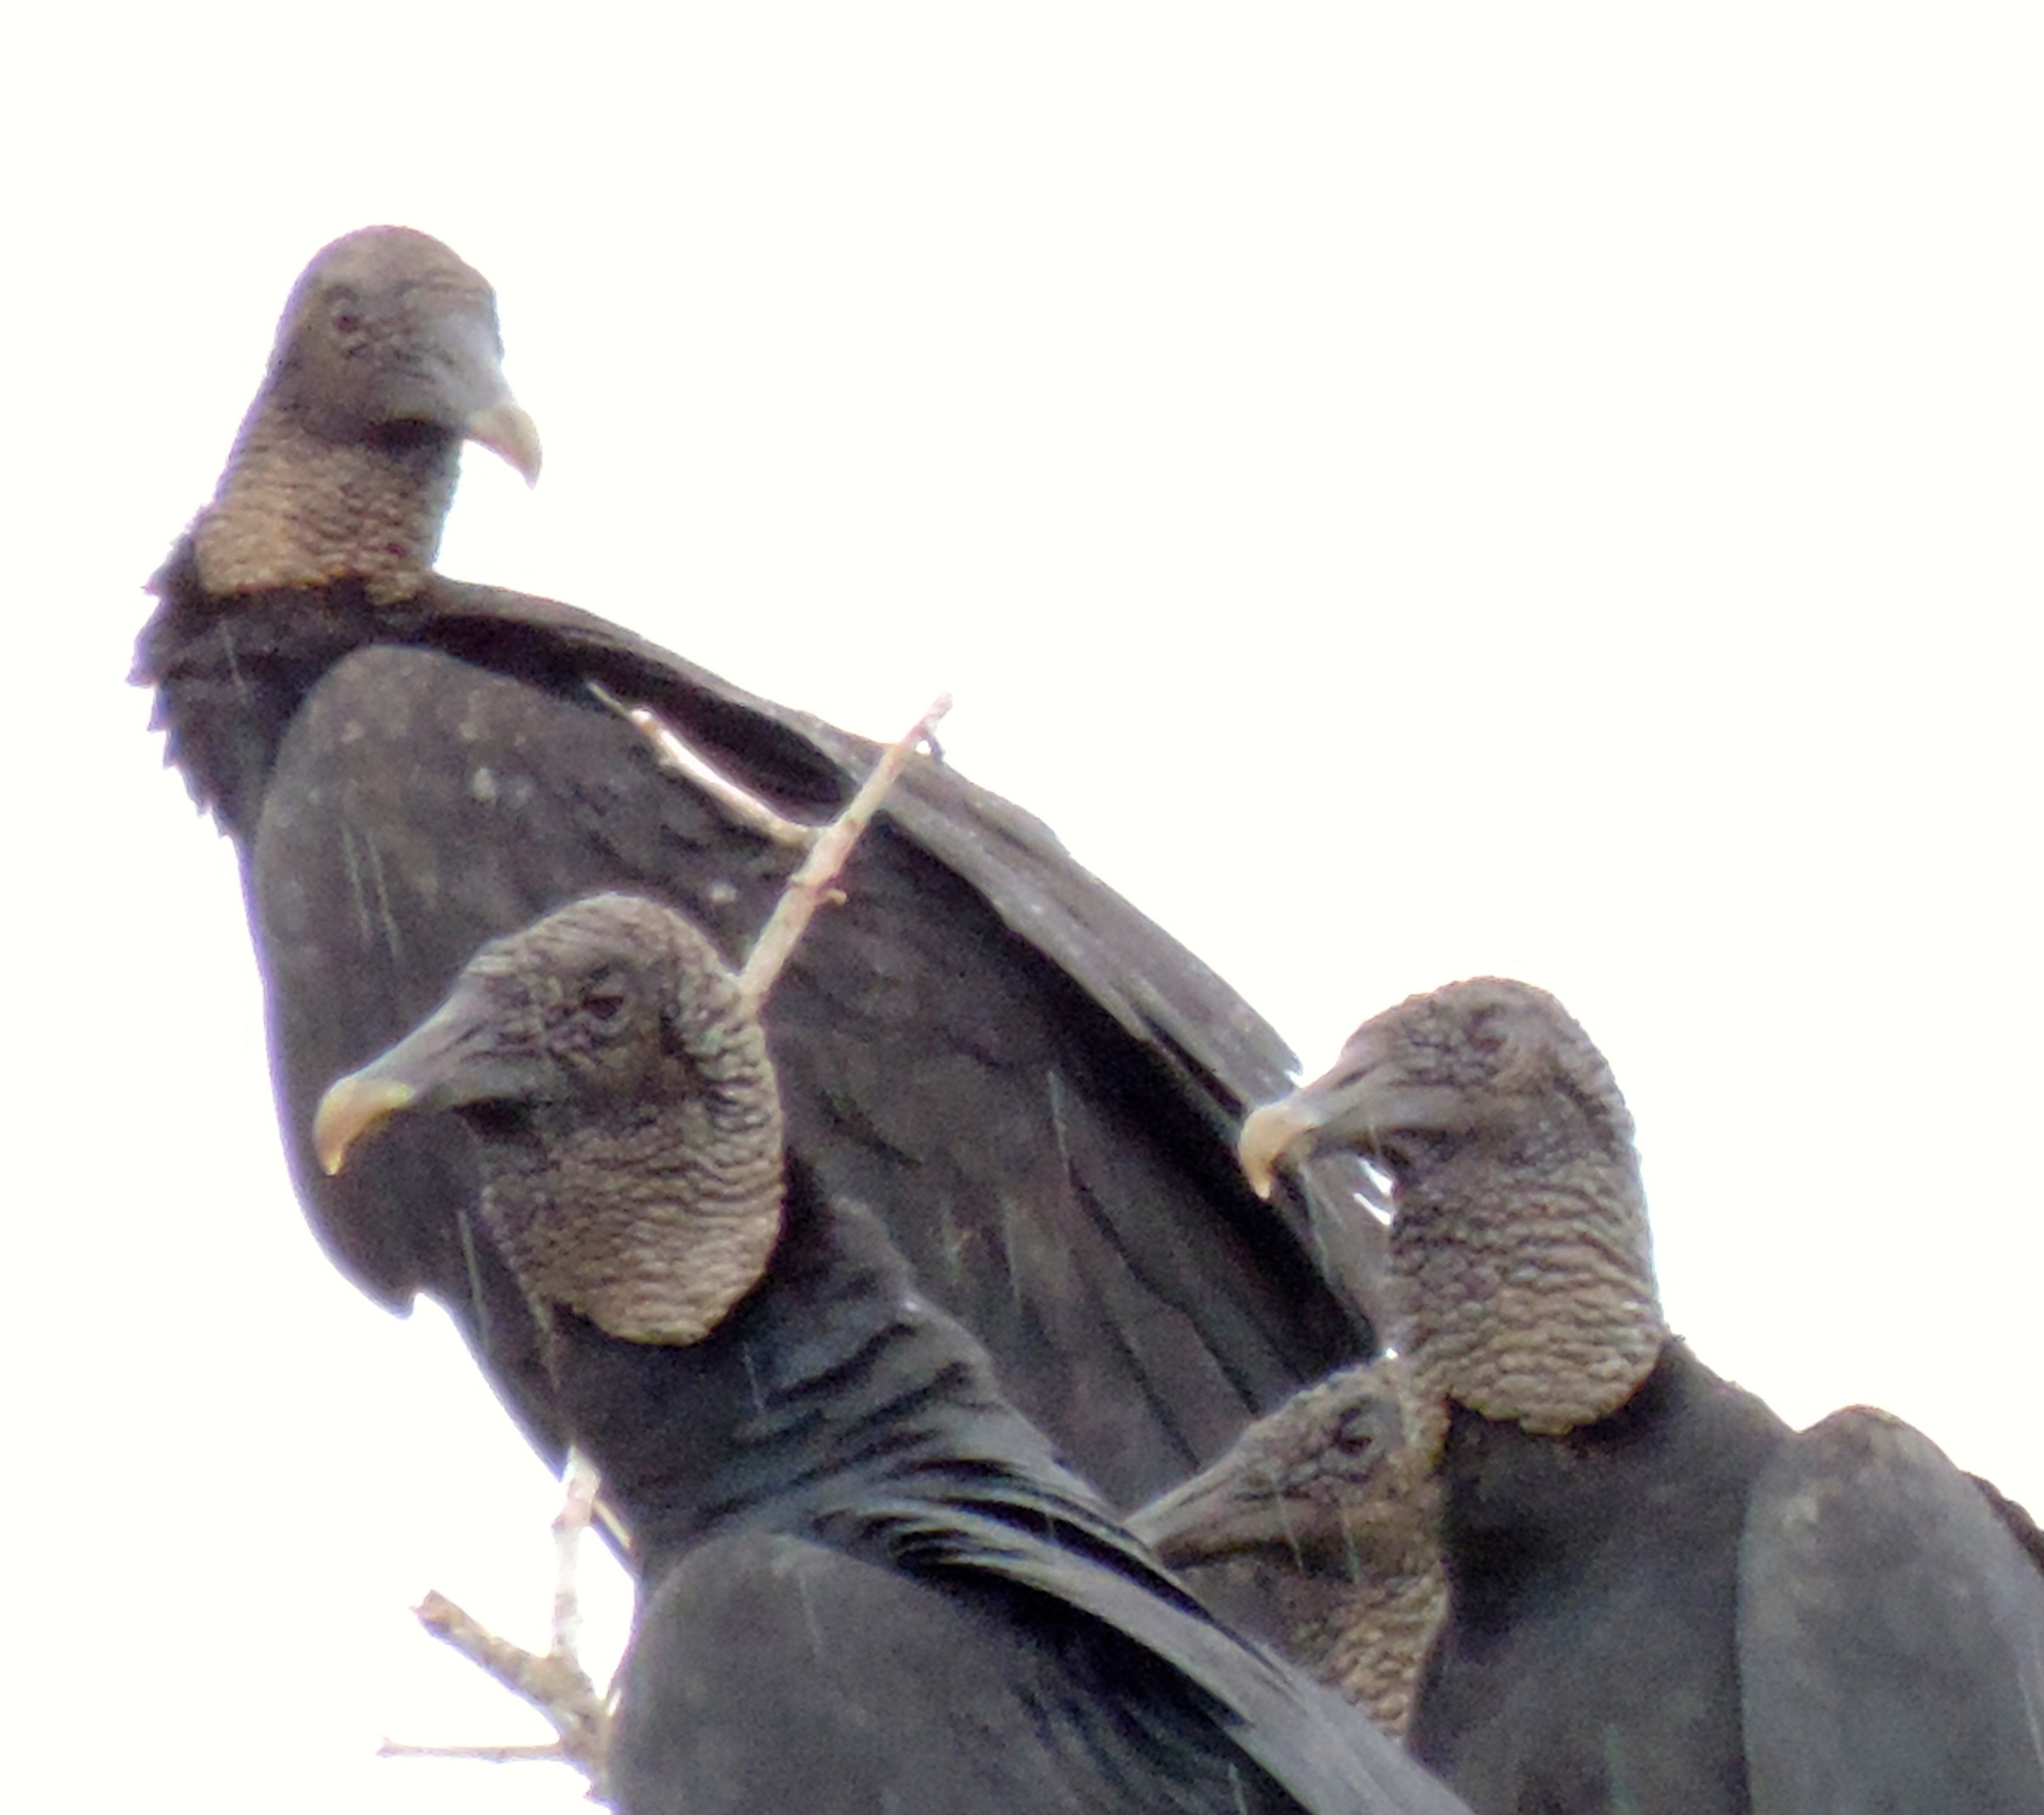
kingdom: Animalia
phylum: Chordata
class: Aves
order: Accipitriformes
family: Cathartidae
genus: Coragyps
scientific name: Coragyps atratus
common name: Black vulture
